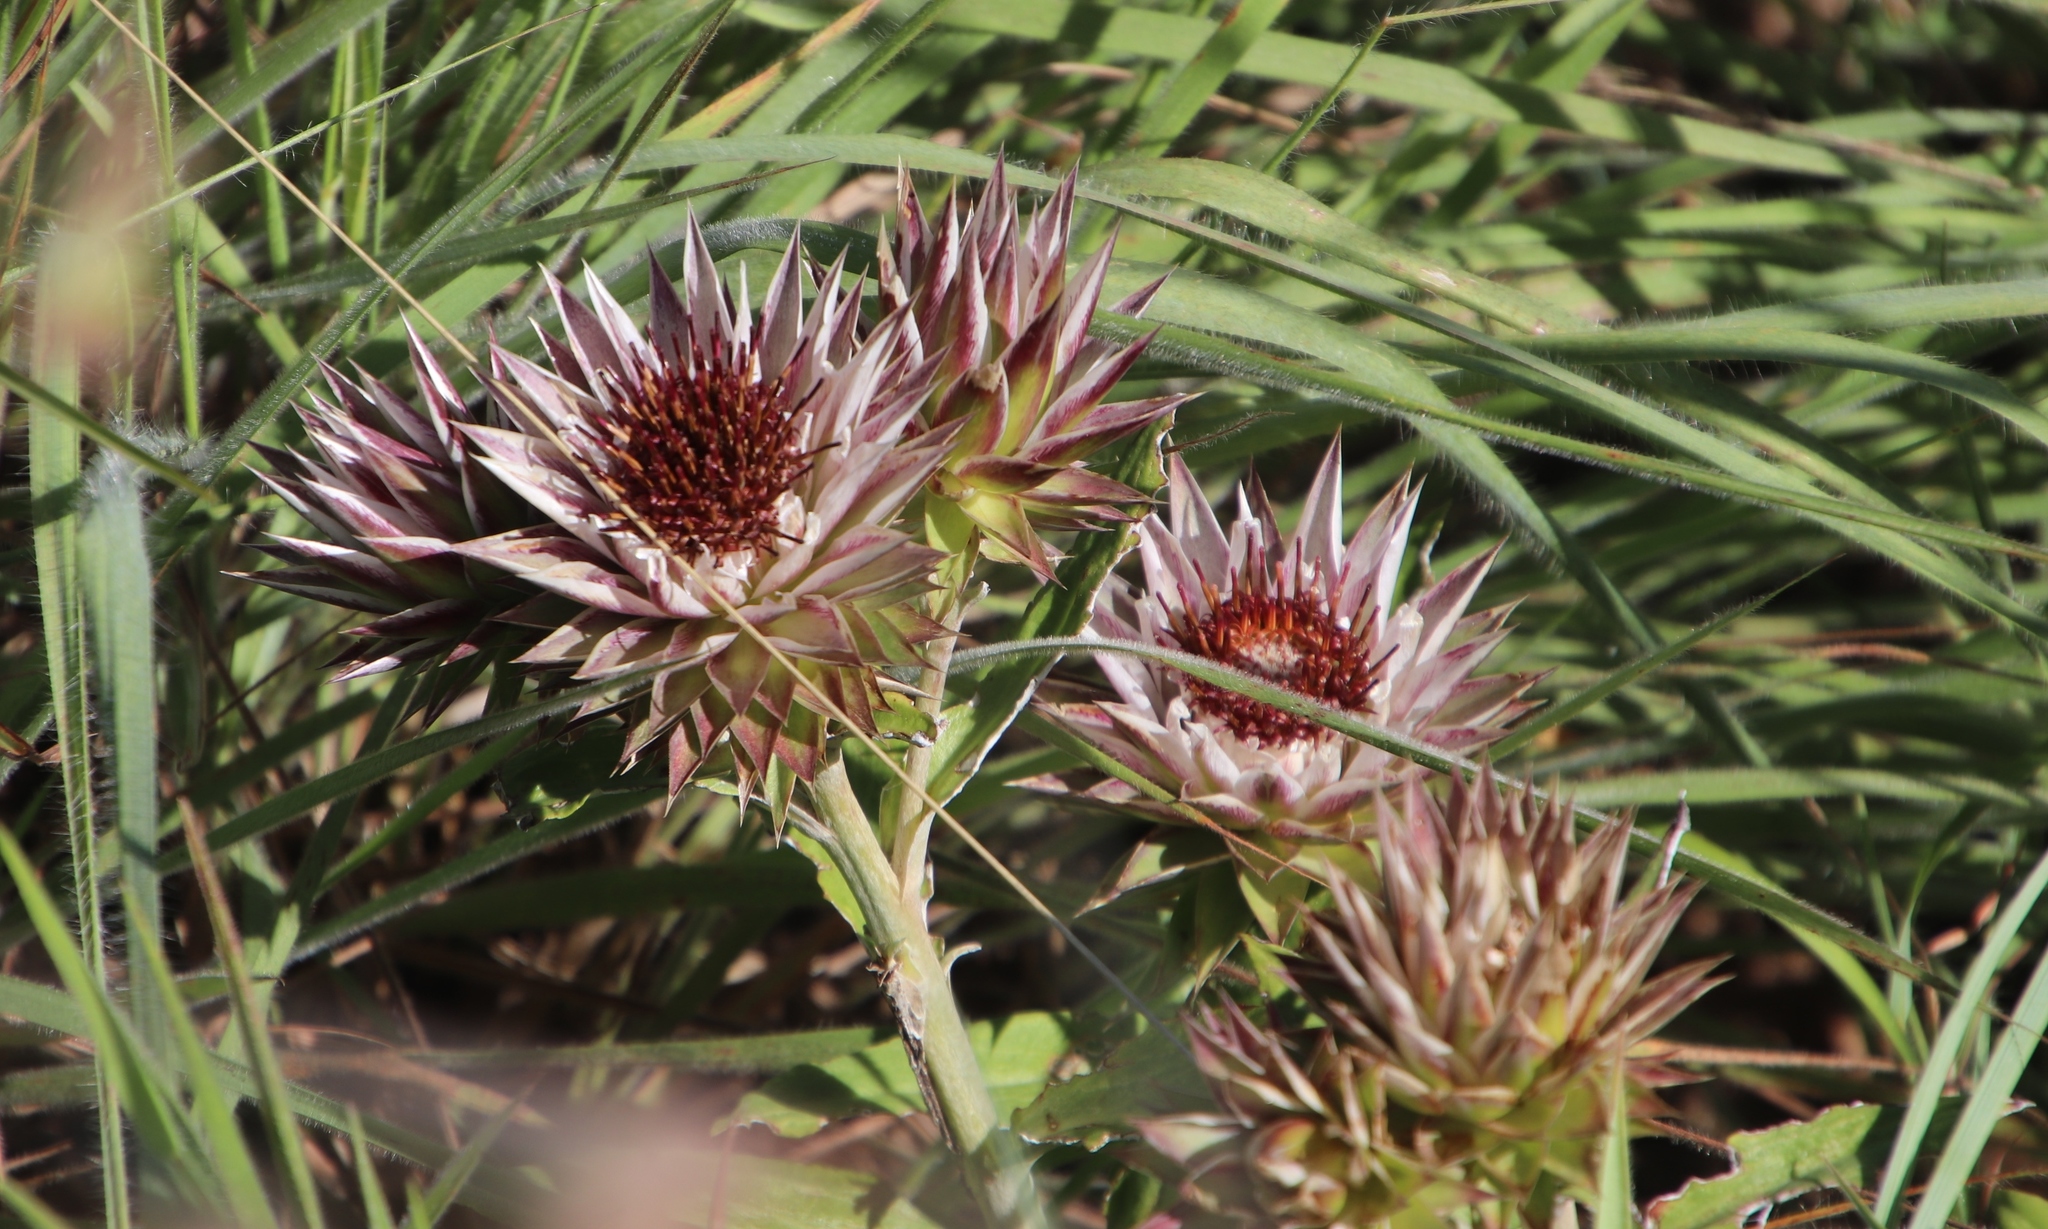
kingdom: Plantae
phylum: Tracheophyta
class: Magnoliopsida
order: Asterales
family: Asteraceae
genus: Macledium
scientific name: Macledium zeyheri
